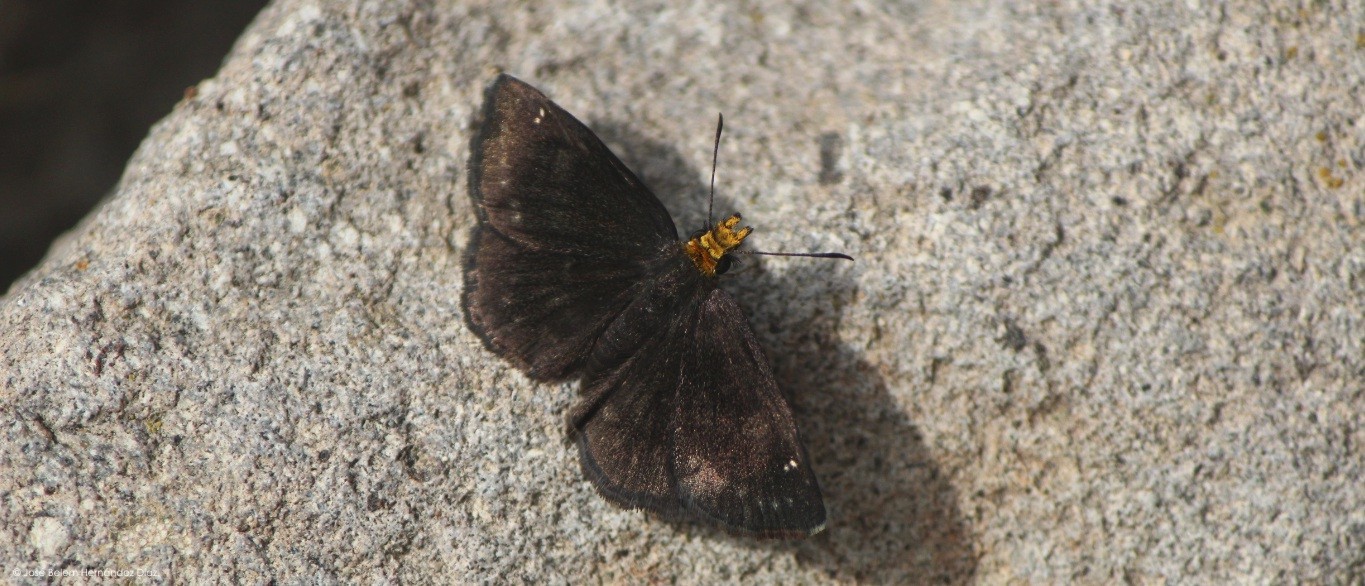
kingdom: Animalia
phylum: Arthropoda
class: Insecta
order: Lepidoptera
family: Hesperiidae
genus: Staphylus
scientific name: Staphylus ceos
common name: Golden-headed scallopwing
